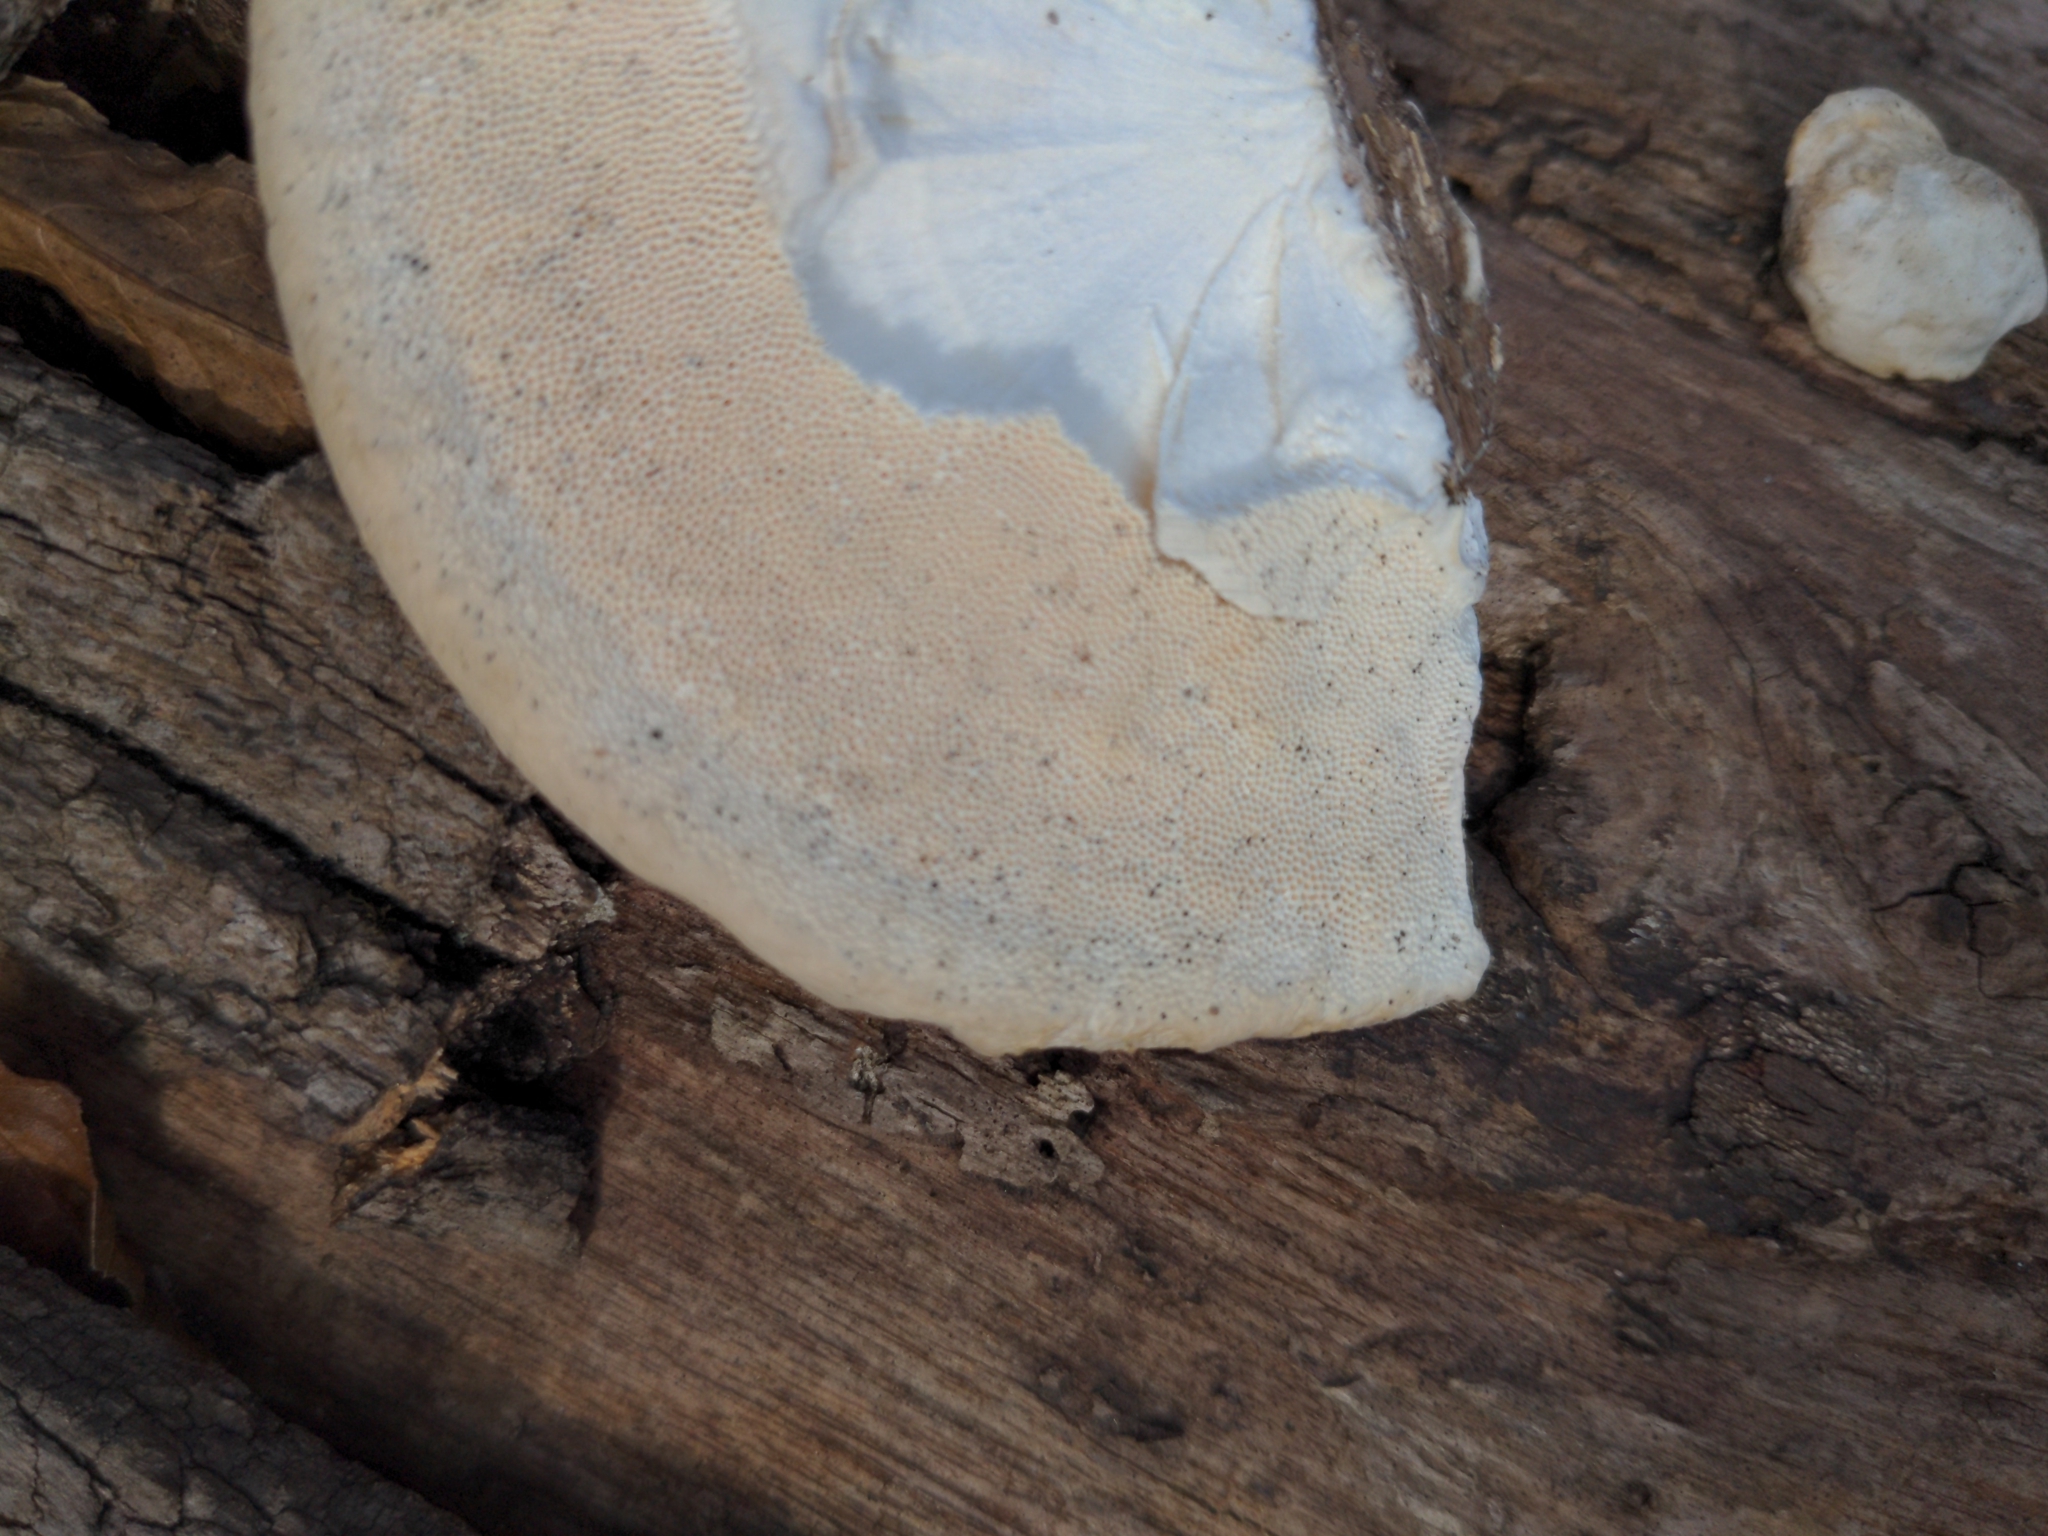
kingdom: Fungi
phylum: Basidiomycota
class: Agaricomycetes
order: Polyporales
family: Polyporaceae
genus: Trametes
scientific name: Trametes lactinea
